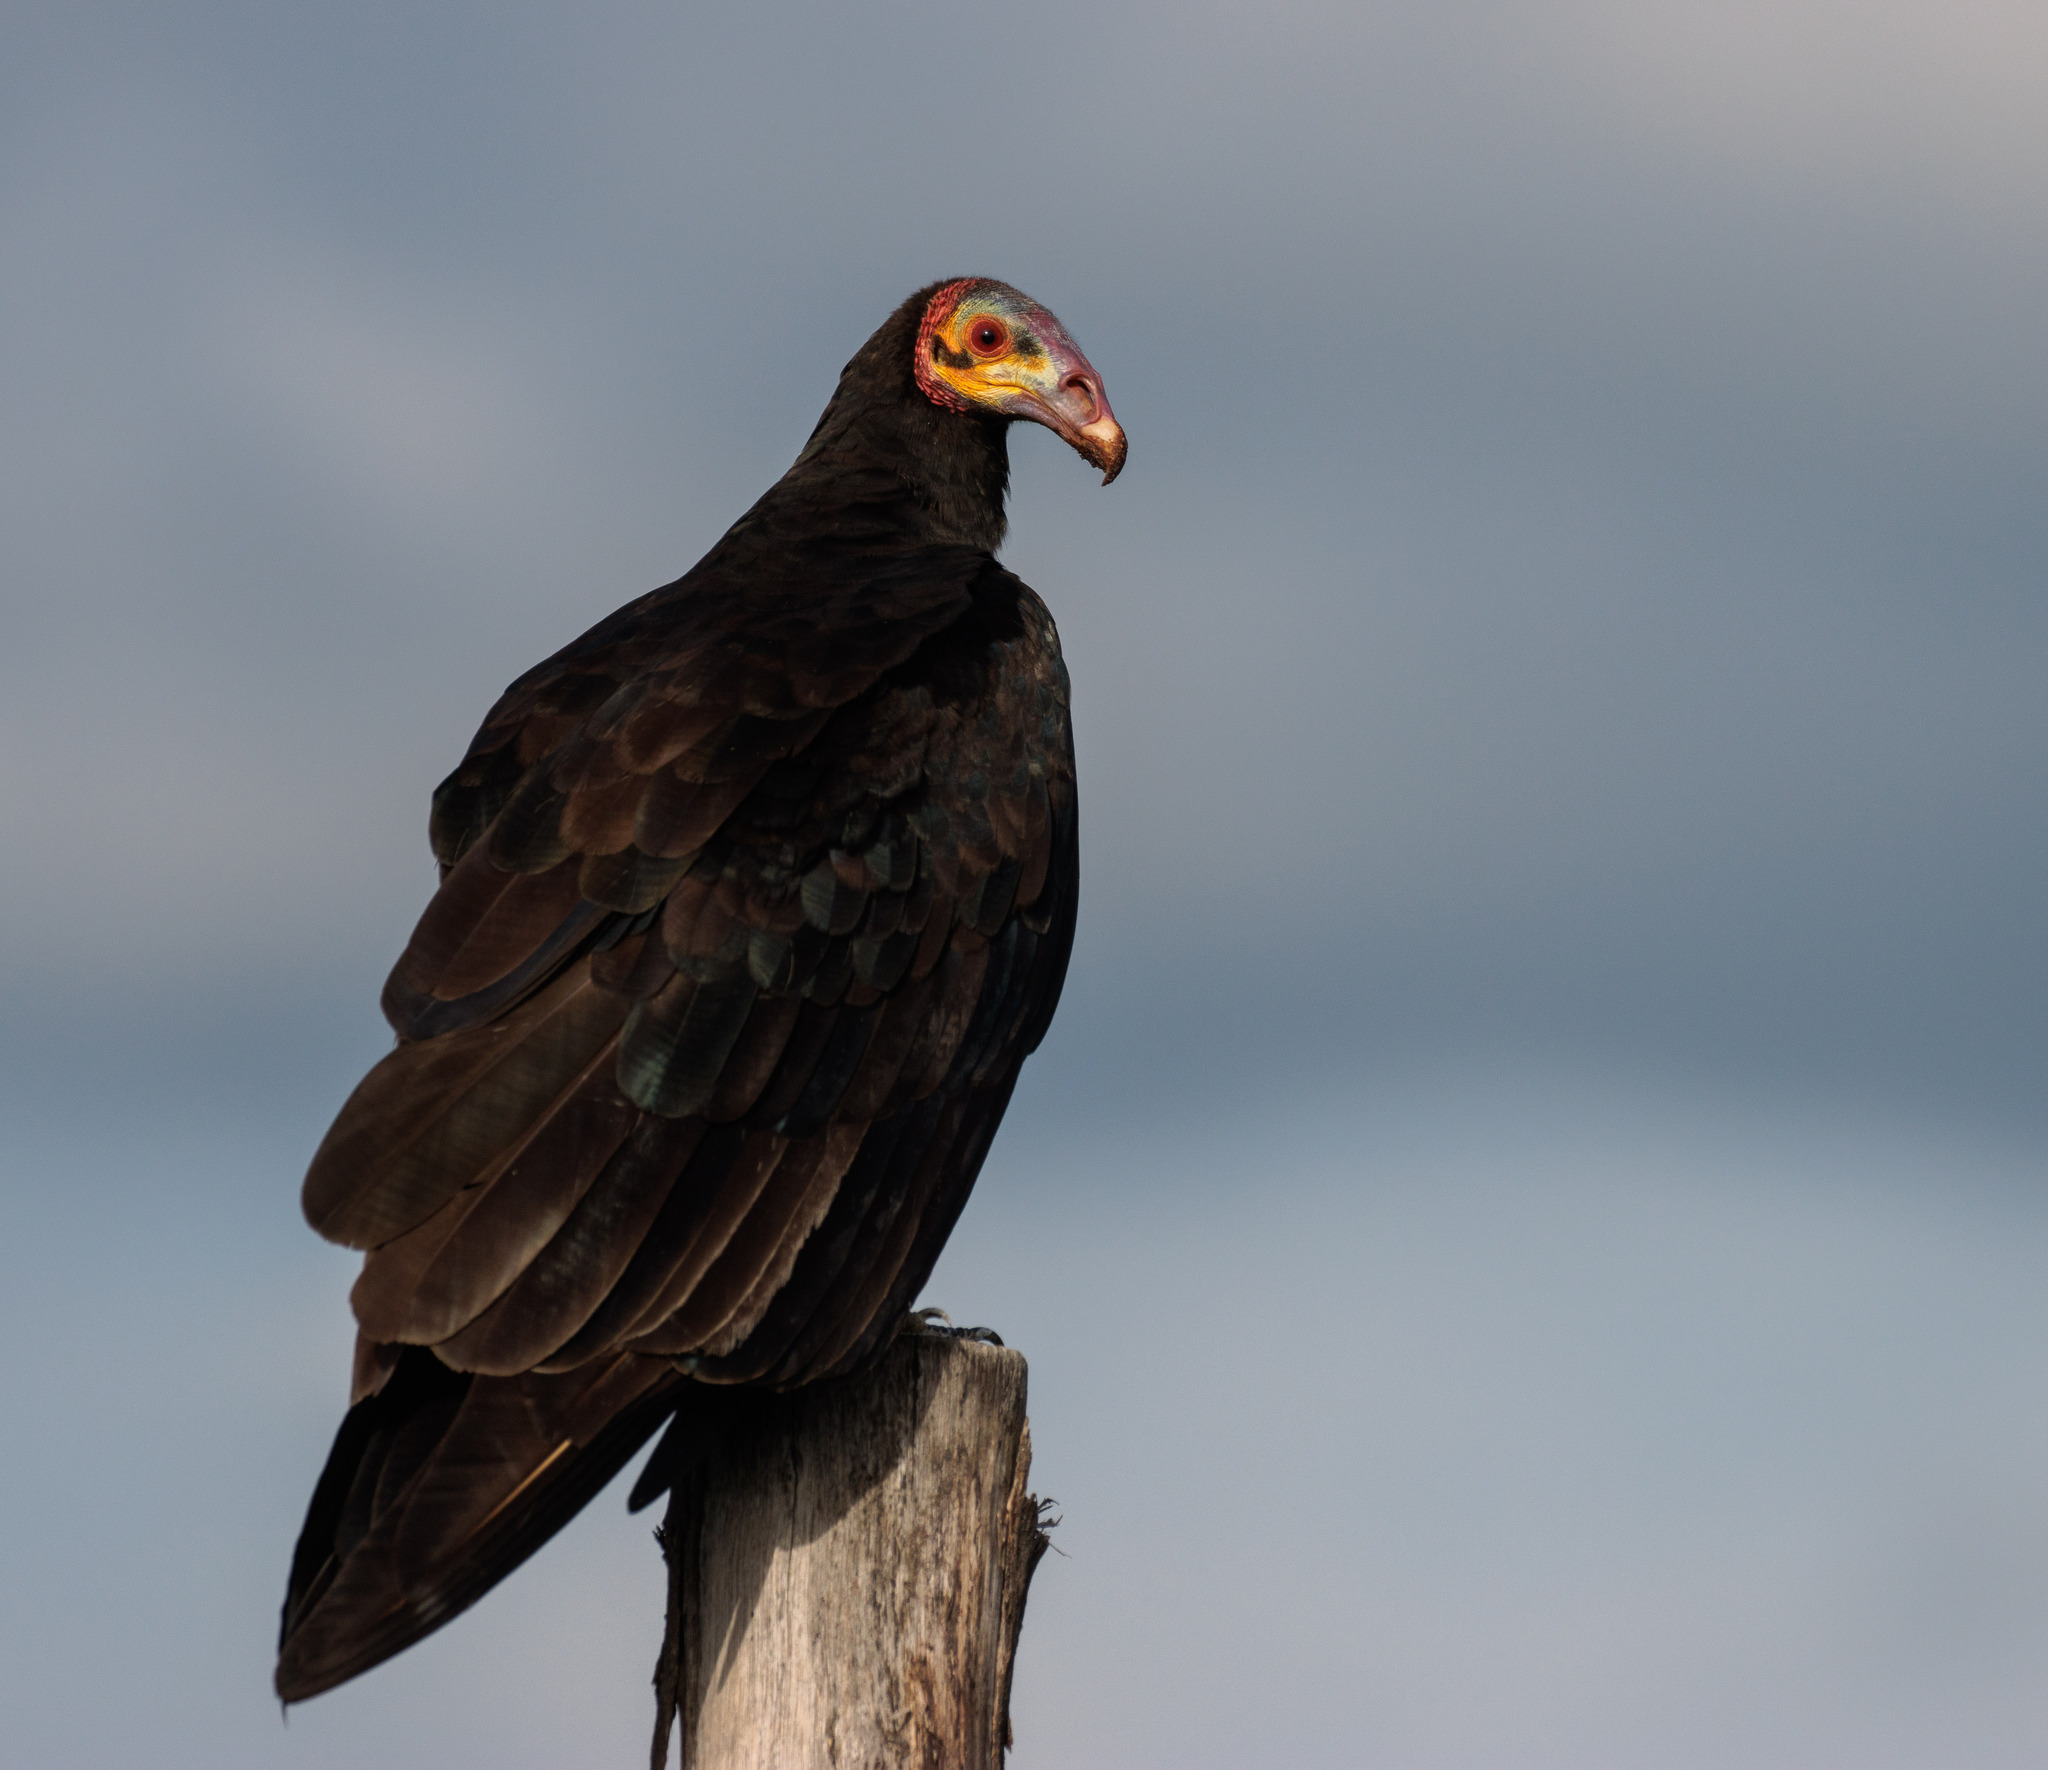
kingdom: Animalia
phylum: Chordata
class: Aves
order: Accipitriformes
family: Cathartidae
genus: Cathartes
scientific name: Cathartes burrovianus
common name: Lesser yellow-headed vulture
